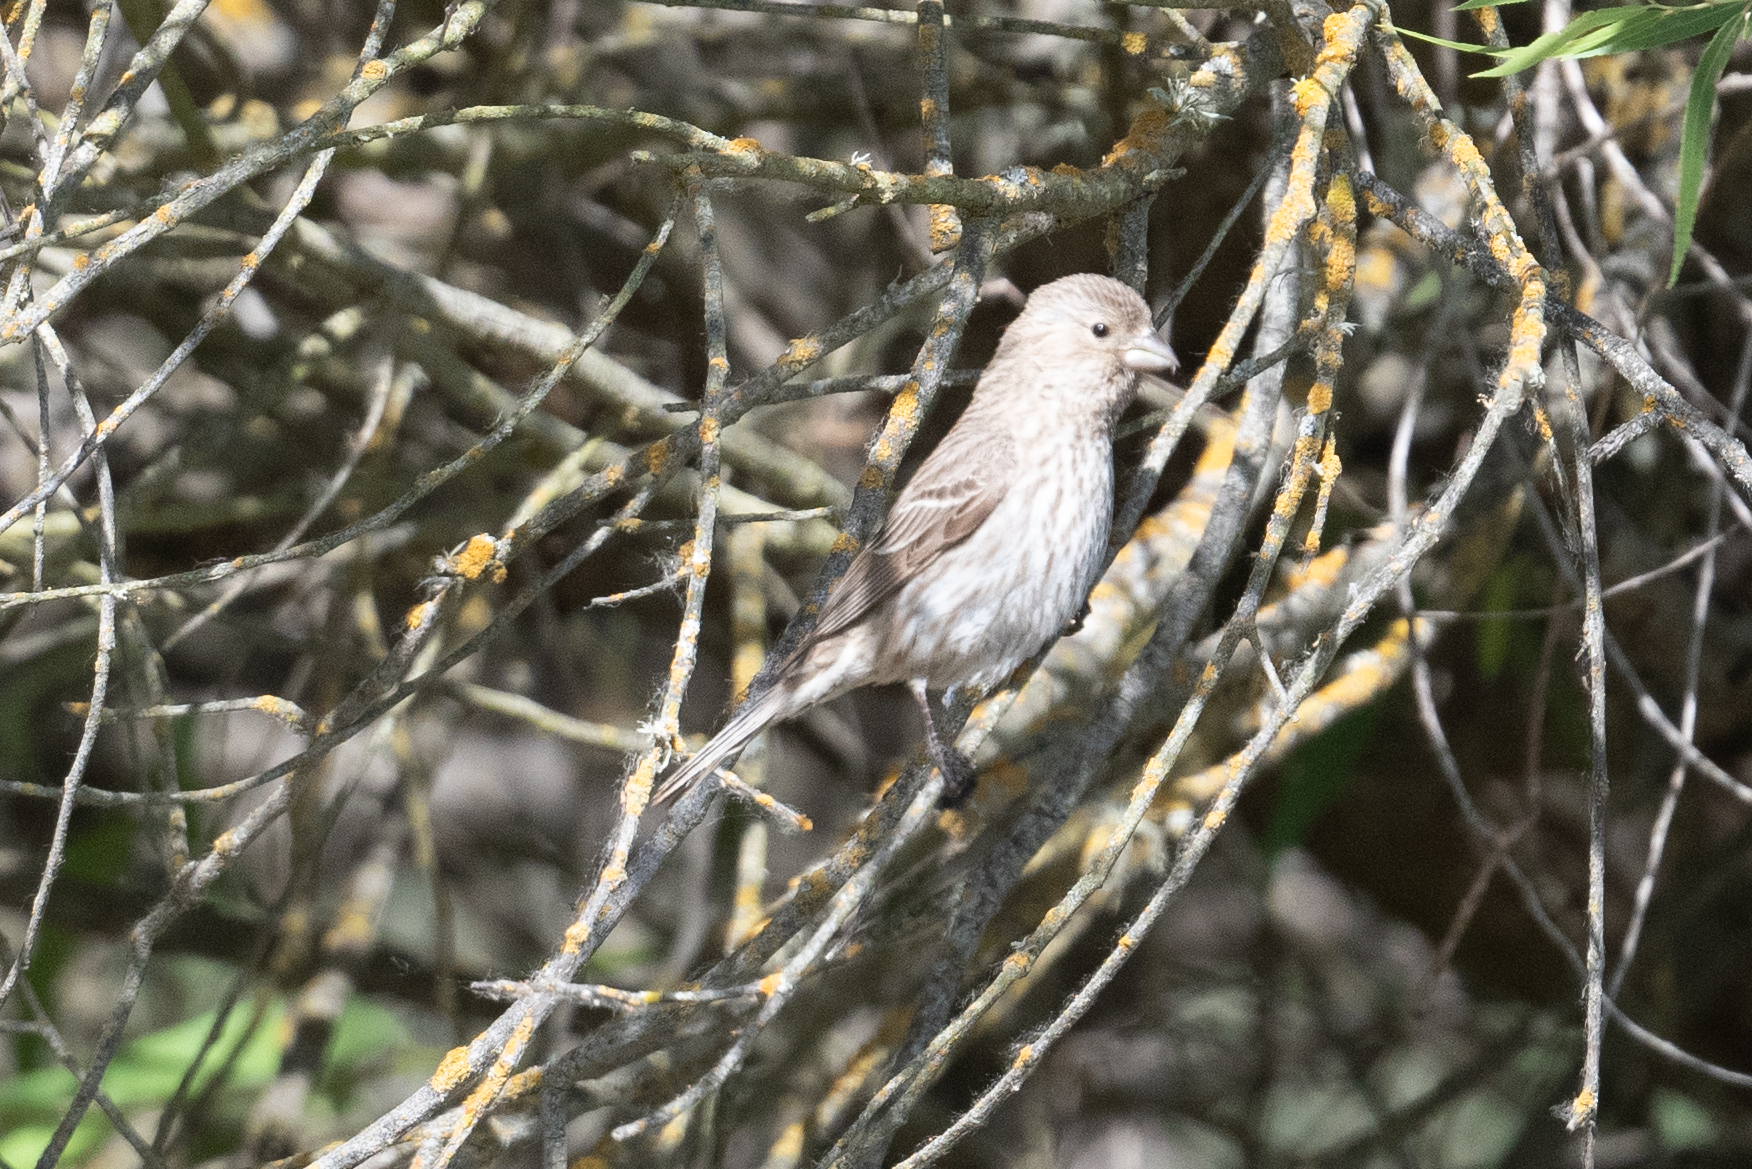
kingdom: Animalia
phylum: Chordata
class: Aves
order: Passeriformes
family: Fringillidae
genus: Haemorhous
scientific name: Haemorhous mexicanus
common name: House finch
